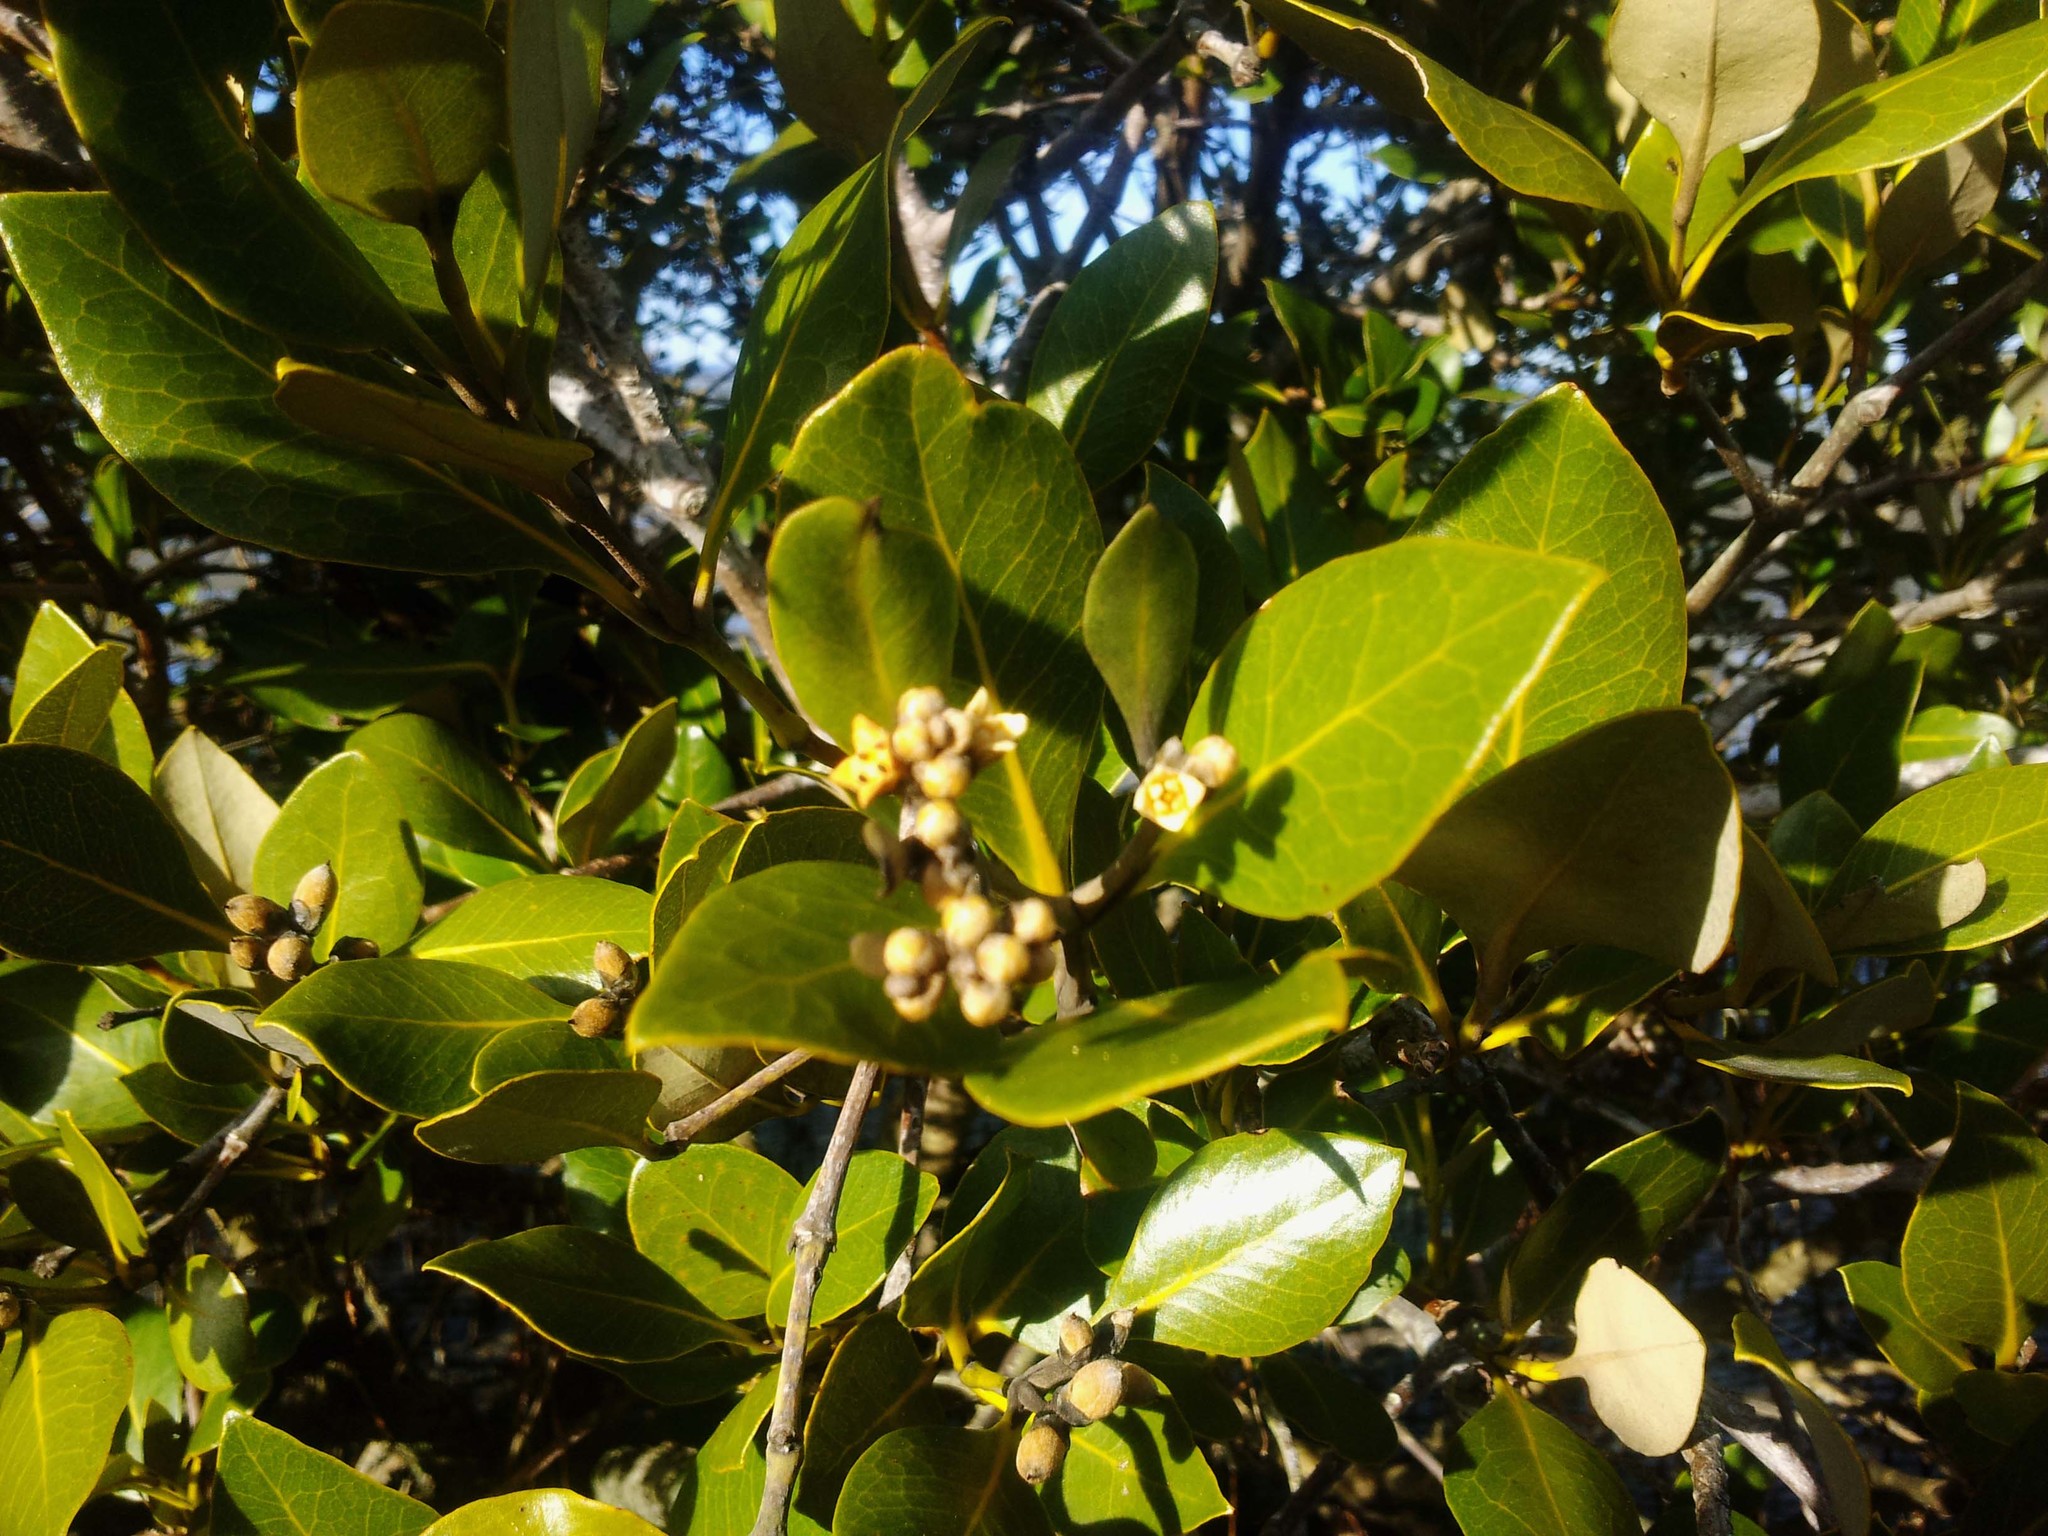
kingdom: Plantae
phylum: Tracheophyta
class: Magnoliopsida
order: Lamiales
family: Acanthaceae
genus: Avicennia
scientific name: Avicennia marina
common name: Gray mangrove
